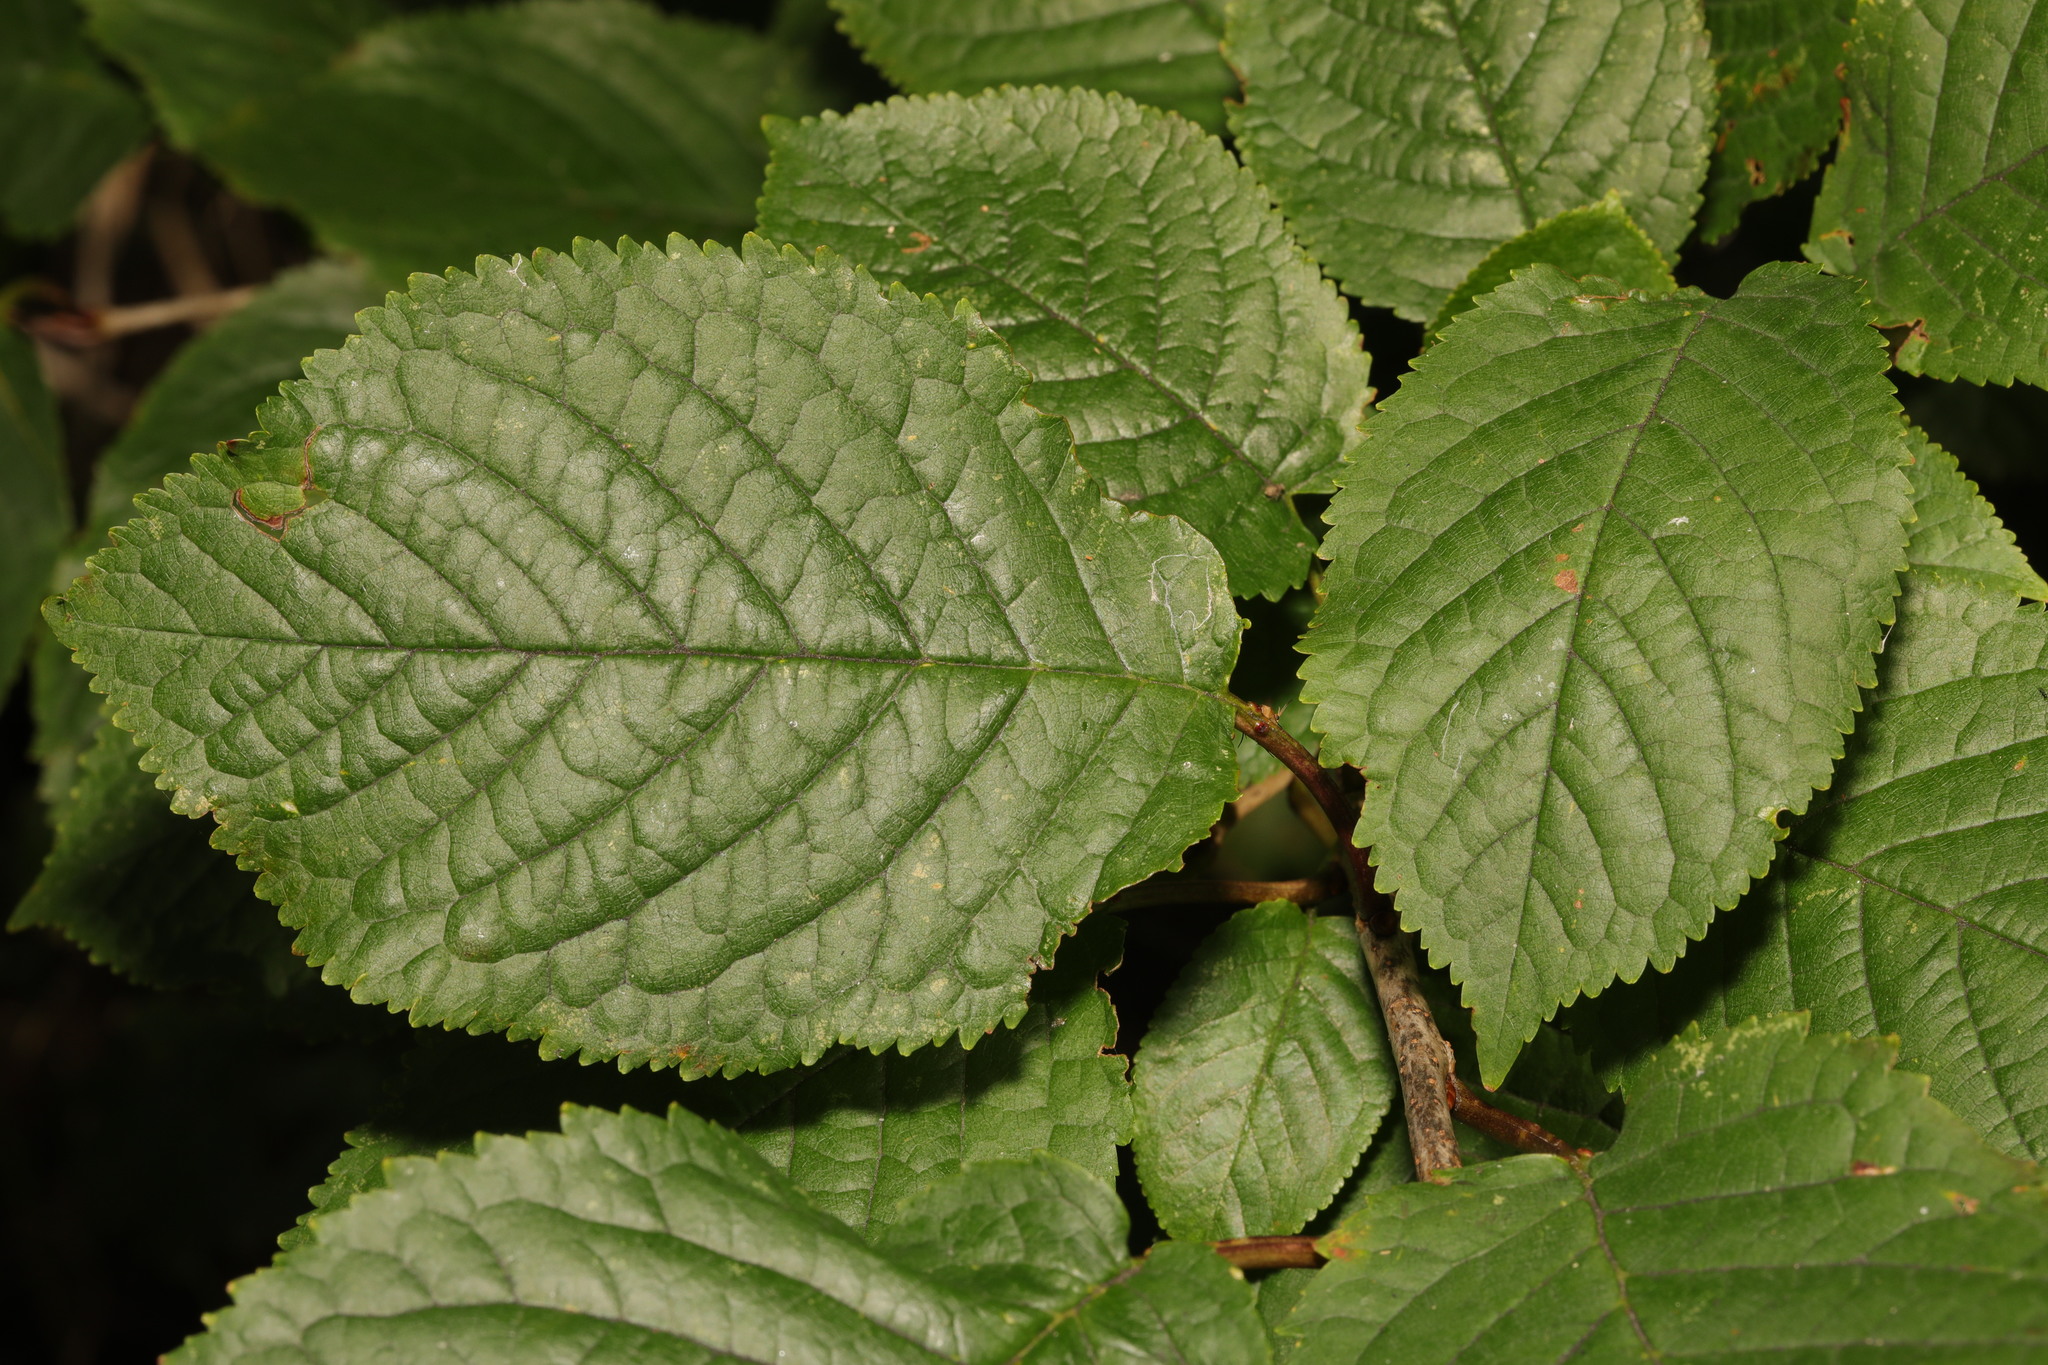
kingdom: Plantae
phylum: Tracheophyta
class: Magnoliopsida
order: Rosales
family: Rosaceae
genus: Prunus
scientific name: Prunus avium
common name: Sweet cherry
